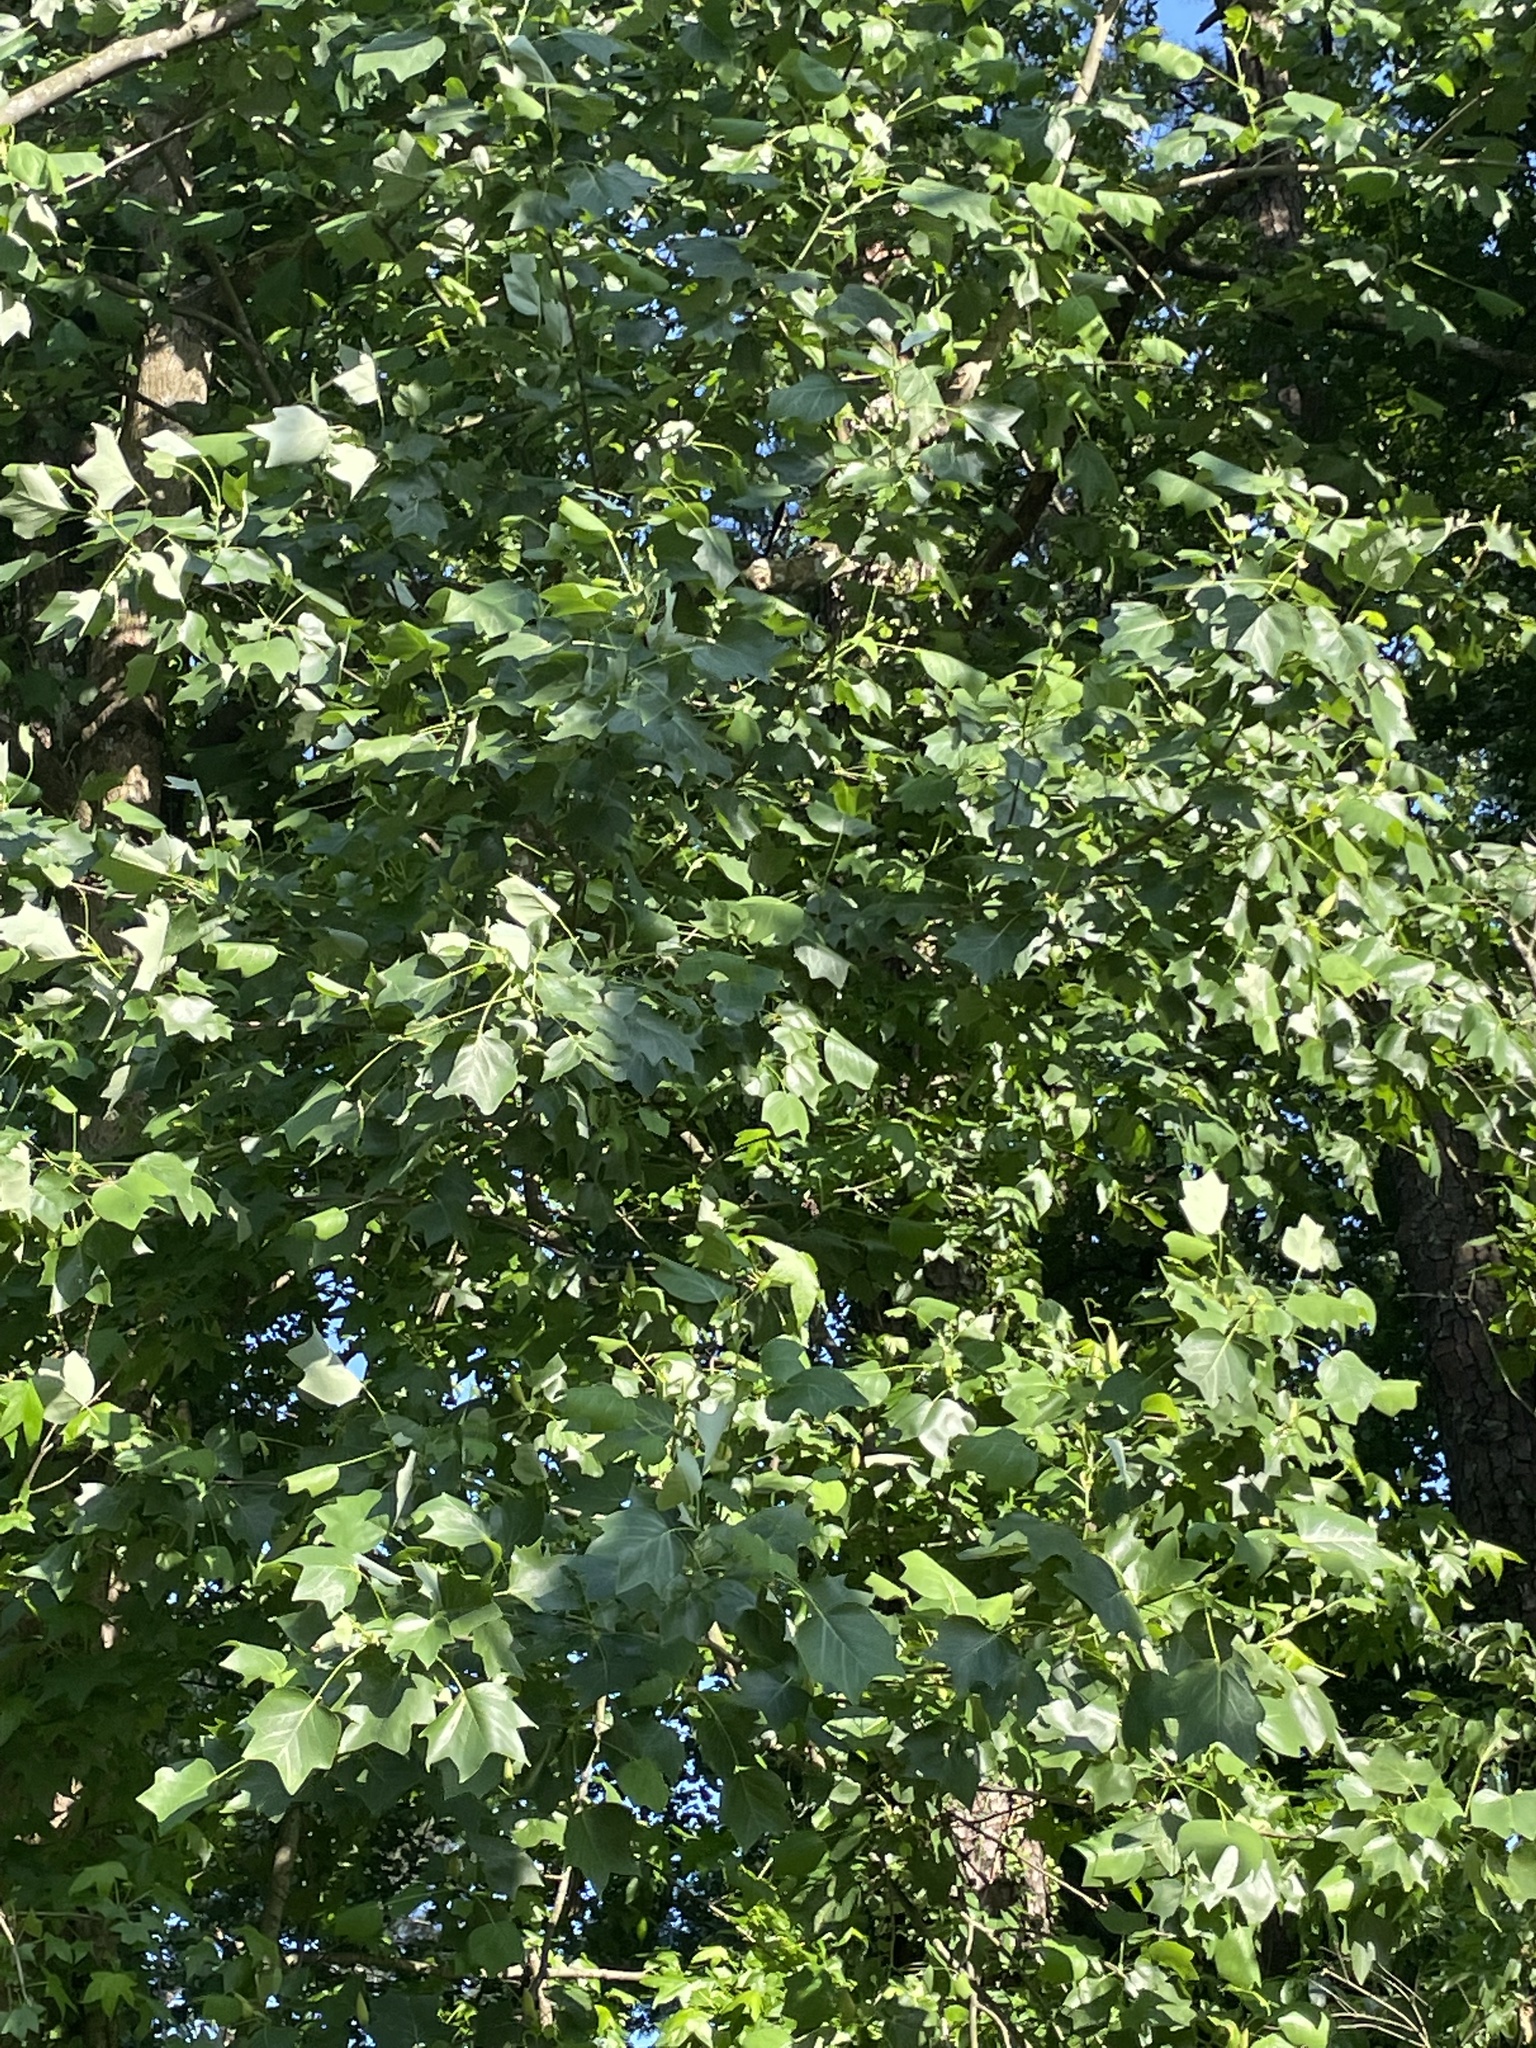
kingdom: Plantae
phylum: Tracheophyta
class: Magnoliopsida
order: Magnoliales
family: Magnoliaceae
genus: Liriodendron
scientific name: Liriodendron tulipifera
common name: Tulip tree
